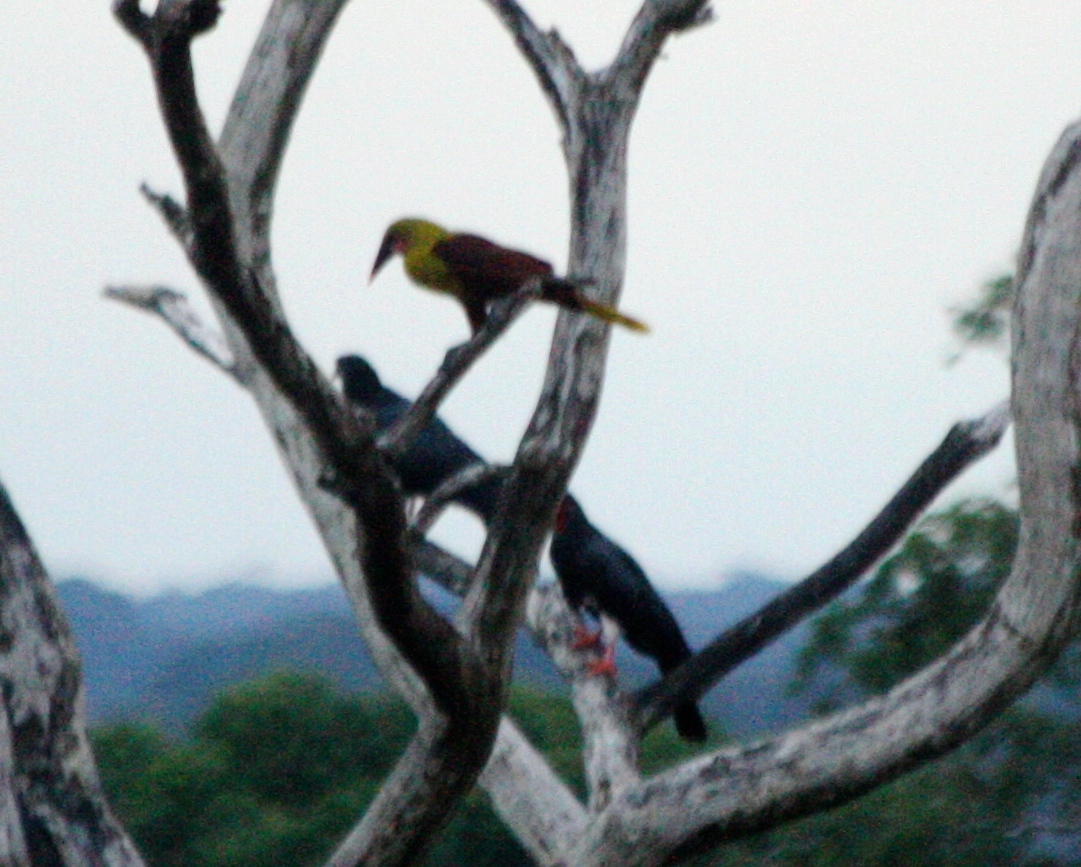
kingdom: Animalia
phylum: Chordata
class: Aves
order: Passeriformes
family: Icteridae
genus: Psarocolius
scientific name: Psarocolius bifasciatus
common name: Olive oropendola
